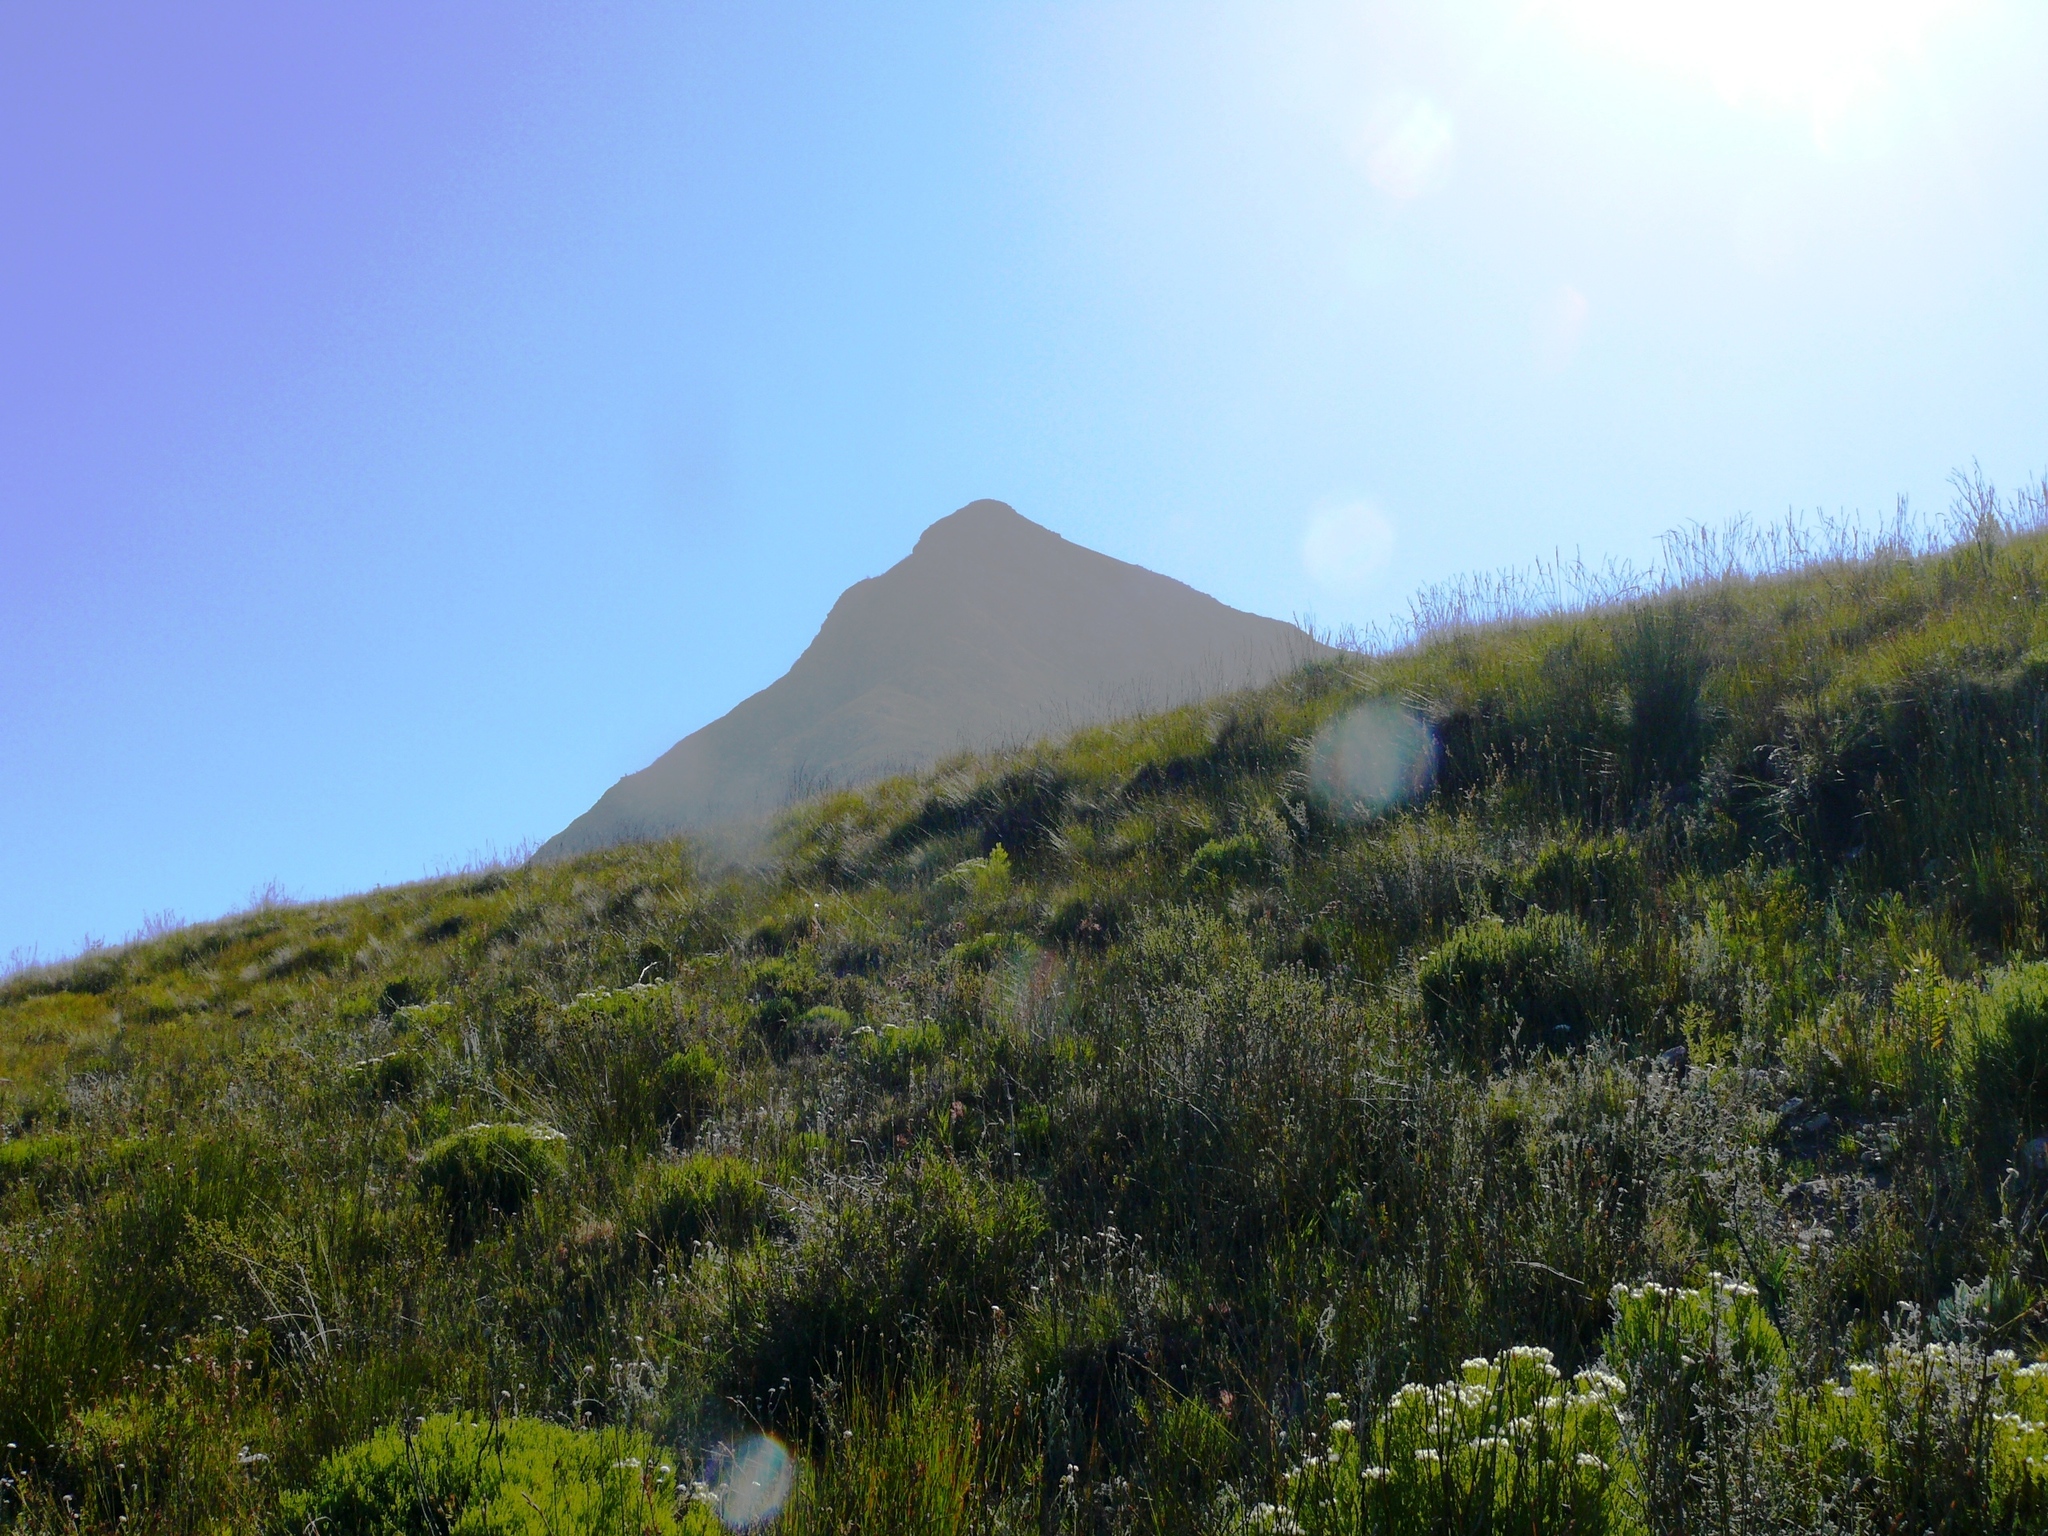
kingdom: Plantae
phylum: Tracheophyta
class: Liliopsida
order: Poales
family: Restionaceae
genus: Elegia
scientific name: Elegia spathacea
